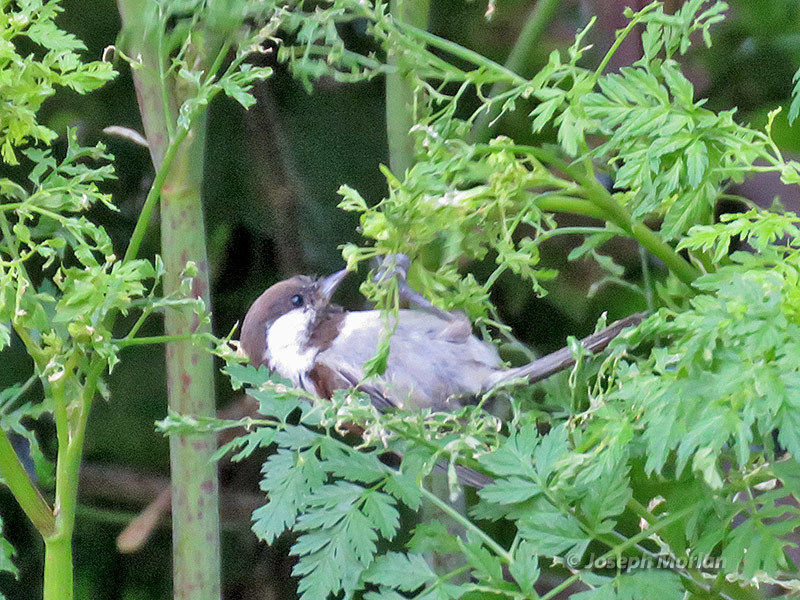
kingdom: Animalia
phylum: Chordata
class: Aves
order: Passeriformes
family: Paridae
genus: Poecile
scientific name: Poecile rufescens
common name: Chestnut-backed chickadee
